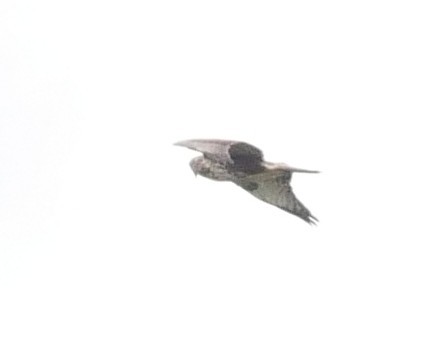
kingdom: Animalia
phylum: Chordata
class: Aves
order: Accipitriformes
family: Accipitridae
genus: Buteo
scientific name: Buteo buteo
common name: Common buzzard
